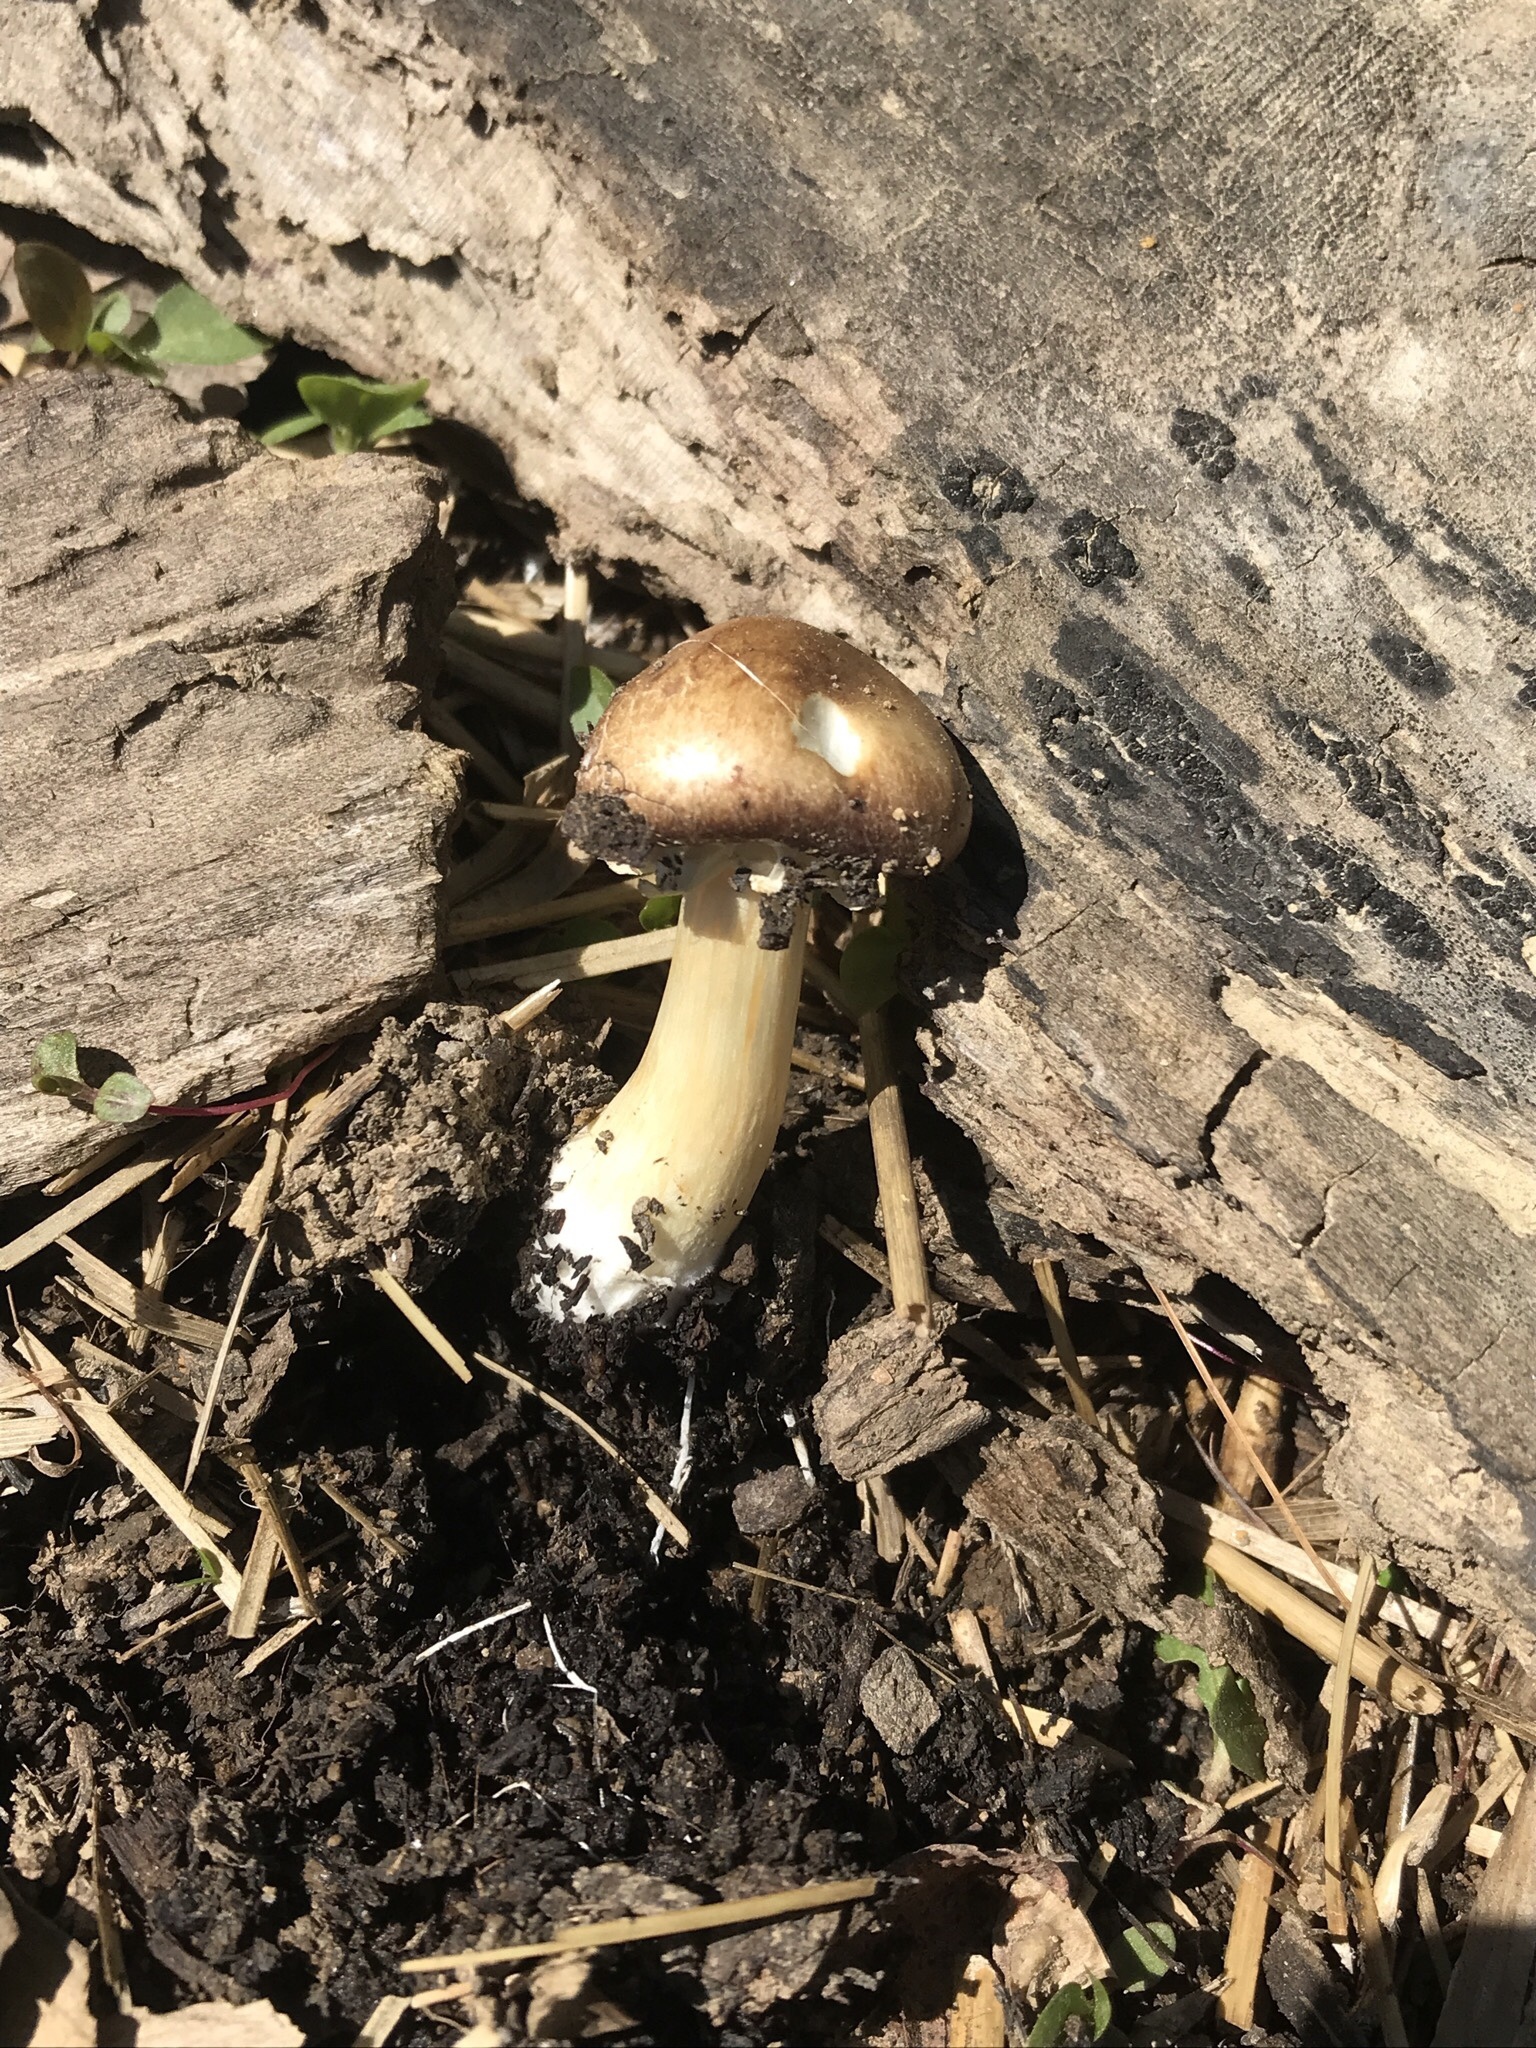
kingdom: Fungi
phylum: Basidiomycota
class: Agaricomycetes
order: Agaricales
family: Strophariaceae
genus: Stropharia
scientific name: Stropharia rugosoannulata
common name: Wine roundhead
